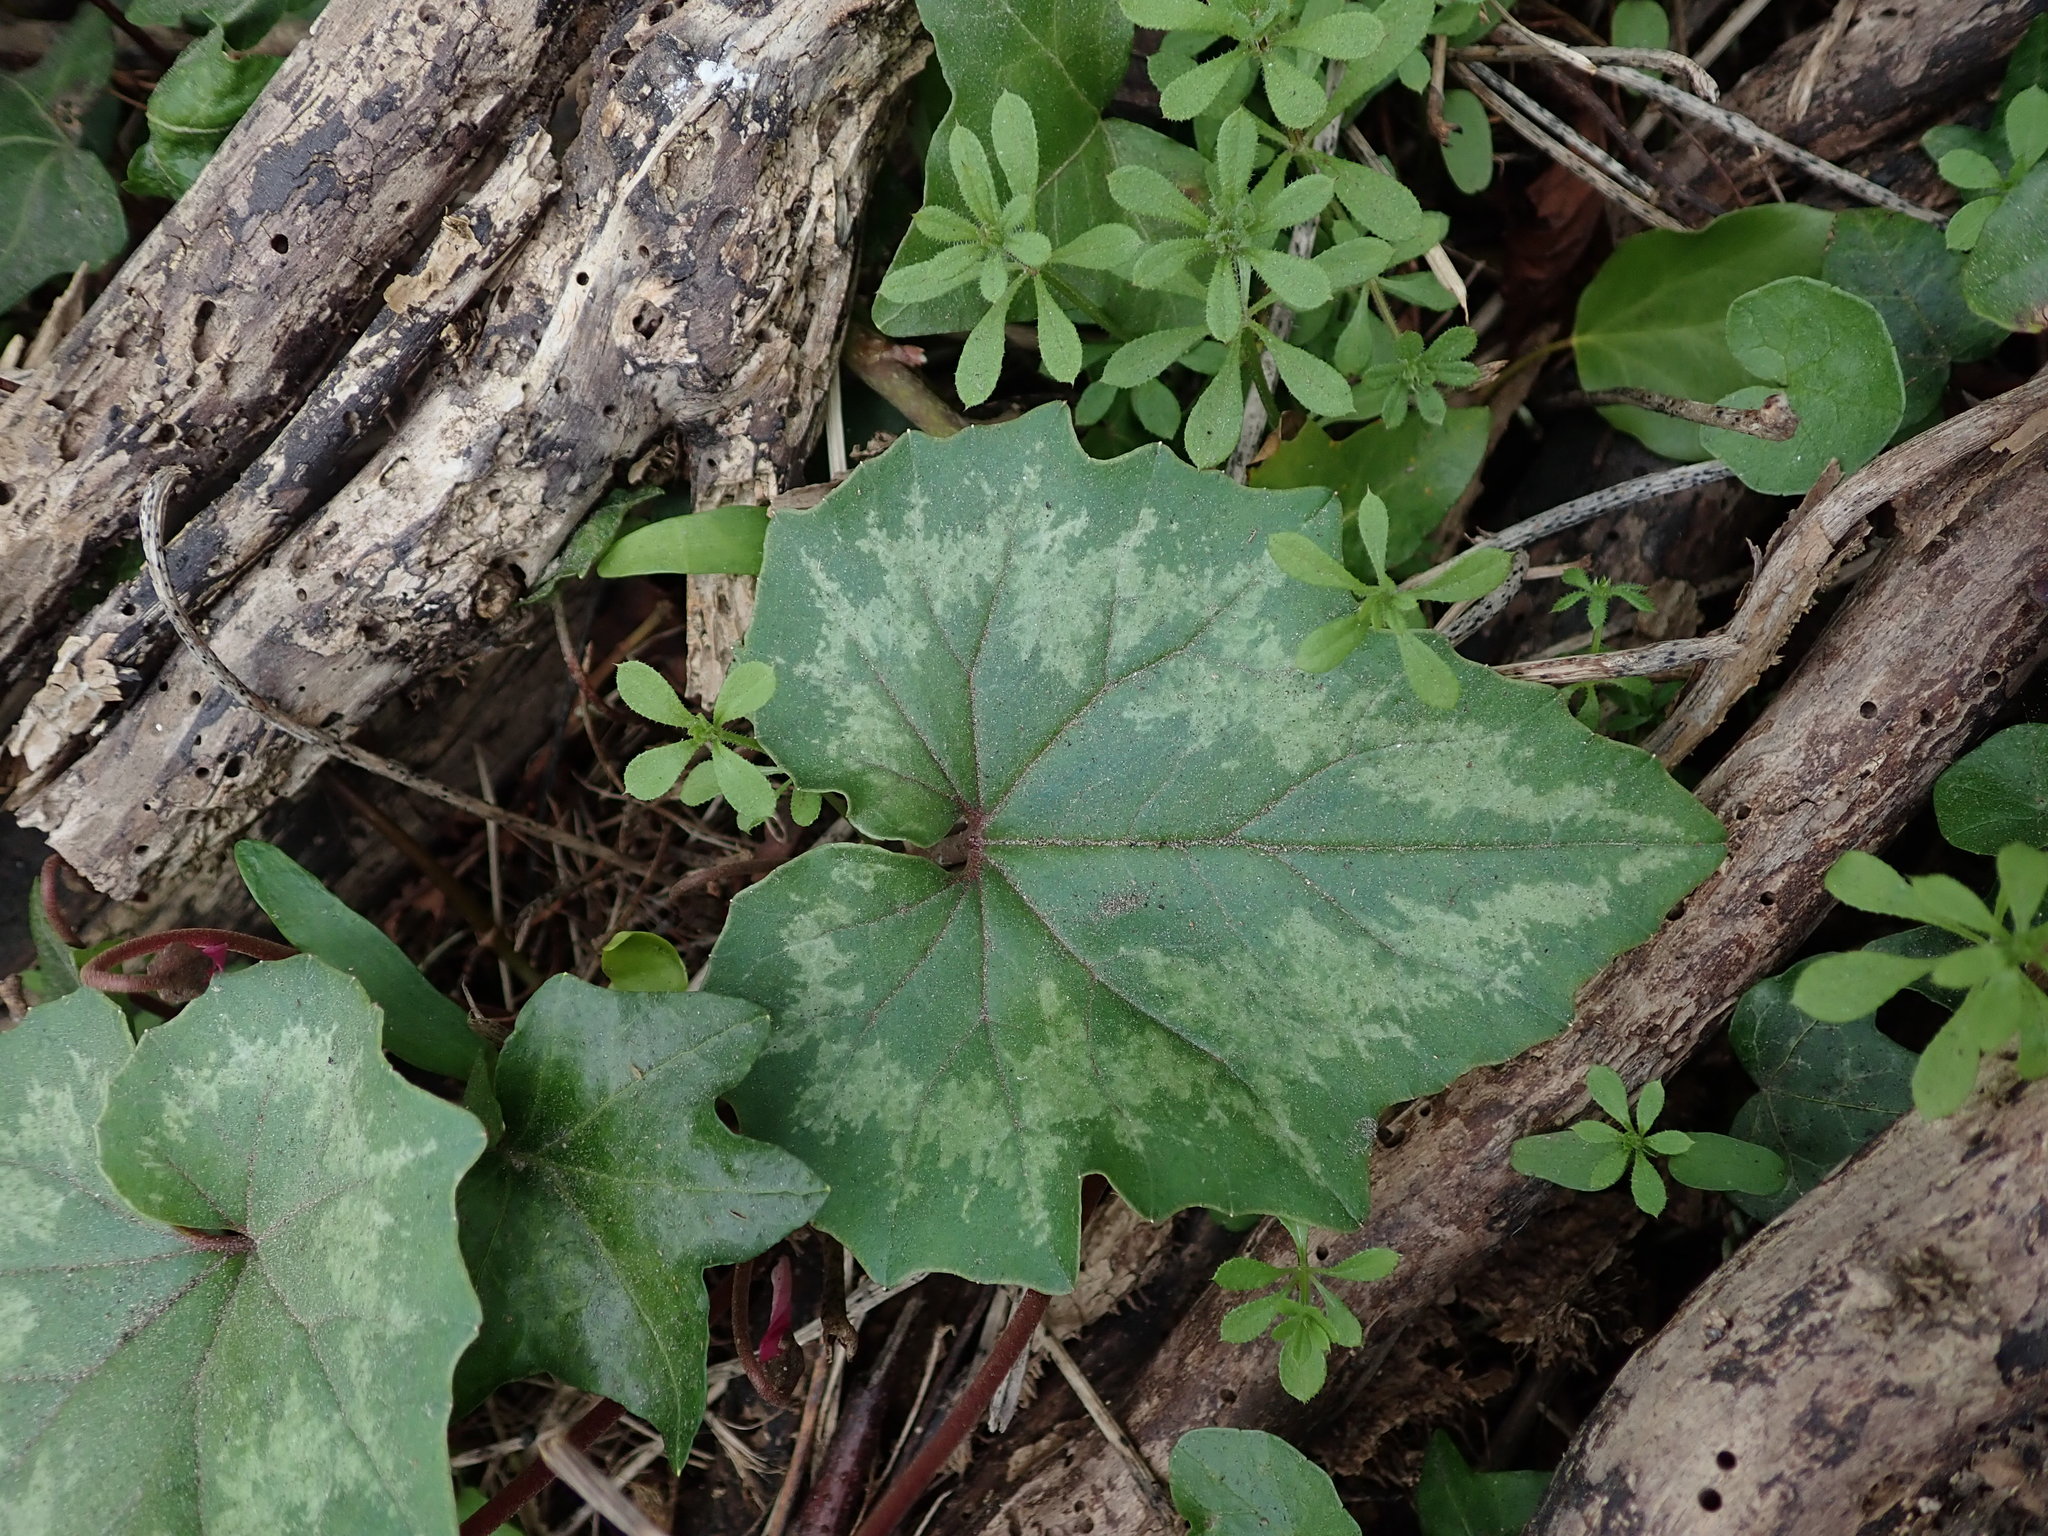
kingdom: Plantae
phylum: Tracheophyta
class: Magnoliopsida
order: Ericales
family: Primulaceae
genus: Cyclamen
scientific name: Cyclamen repandum
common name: Spring sowbread
